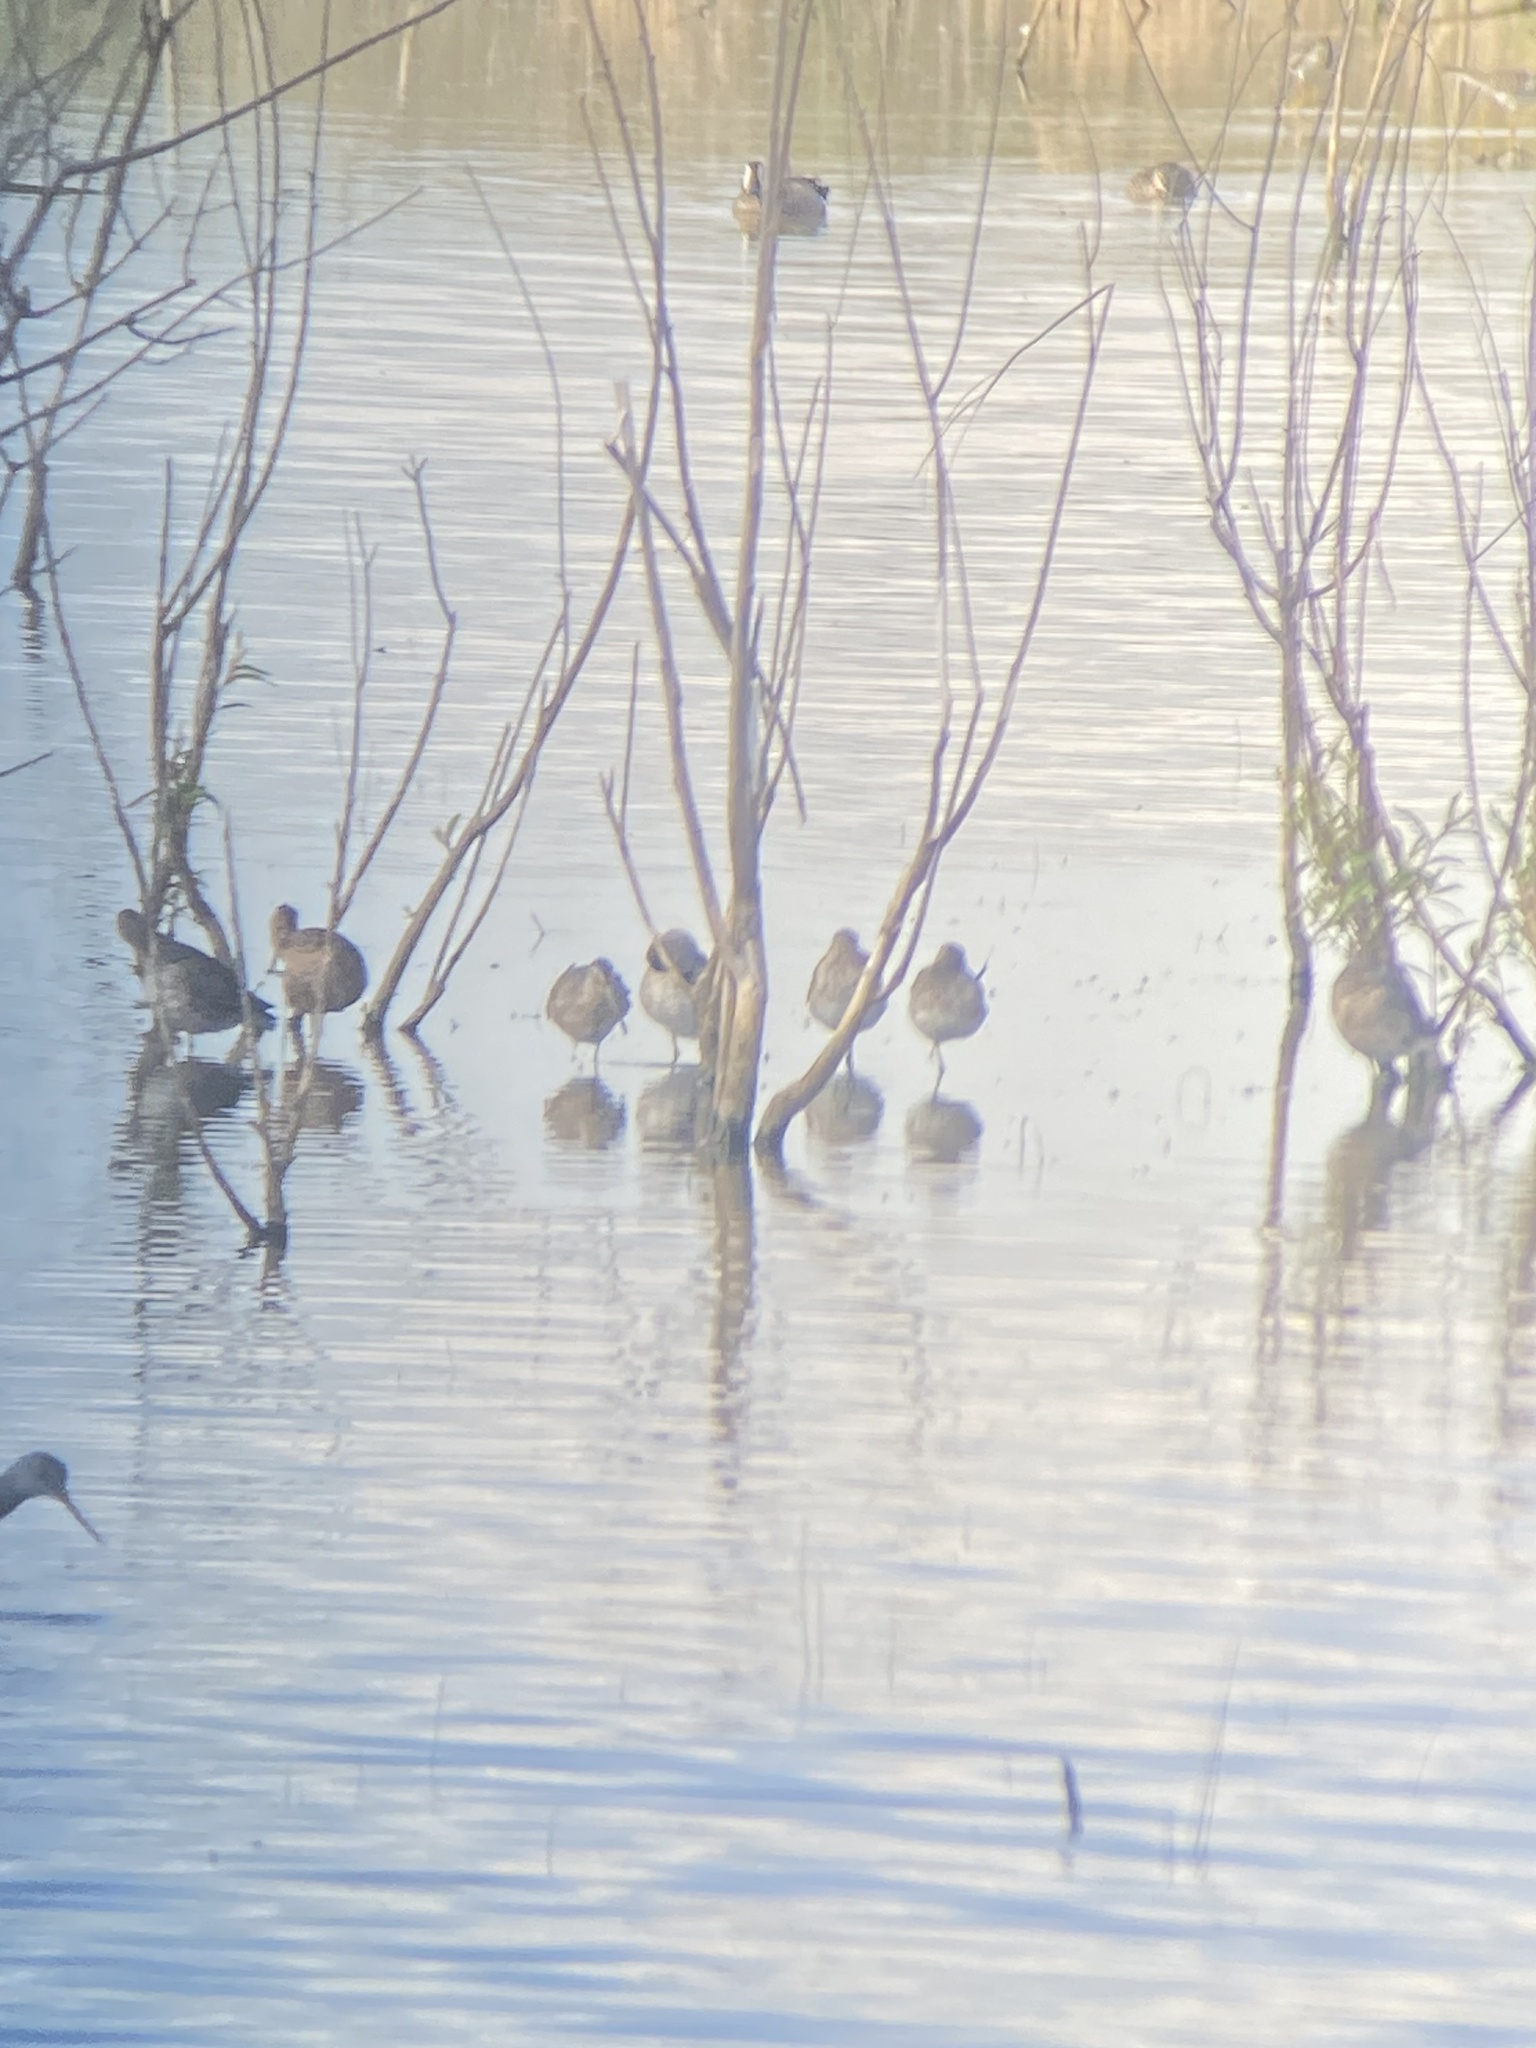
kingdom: Animalia
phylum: Chordata
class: Aves
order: Anseriformes
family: Anatidae
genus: Spatula
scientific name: Spatula discors
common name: Blue-winged teal
